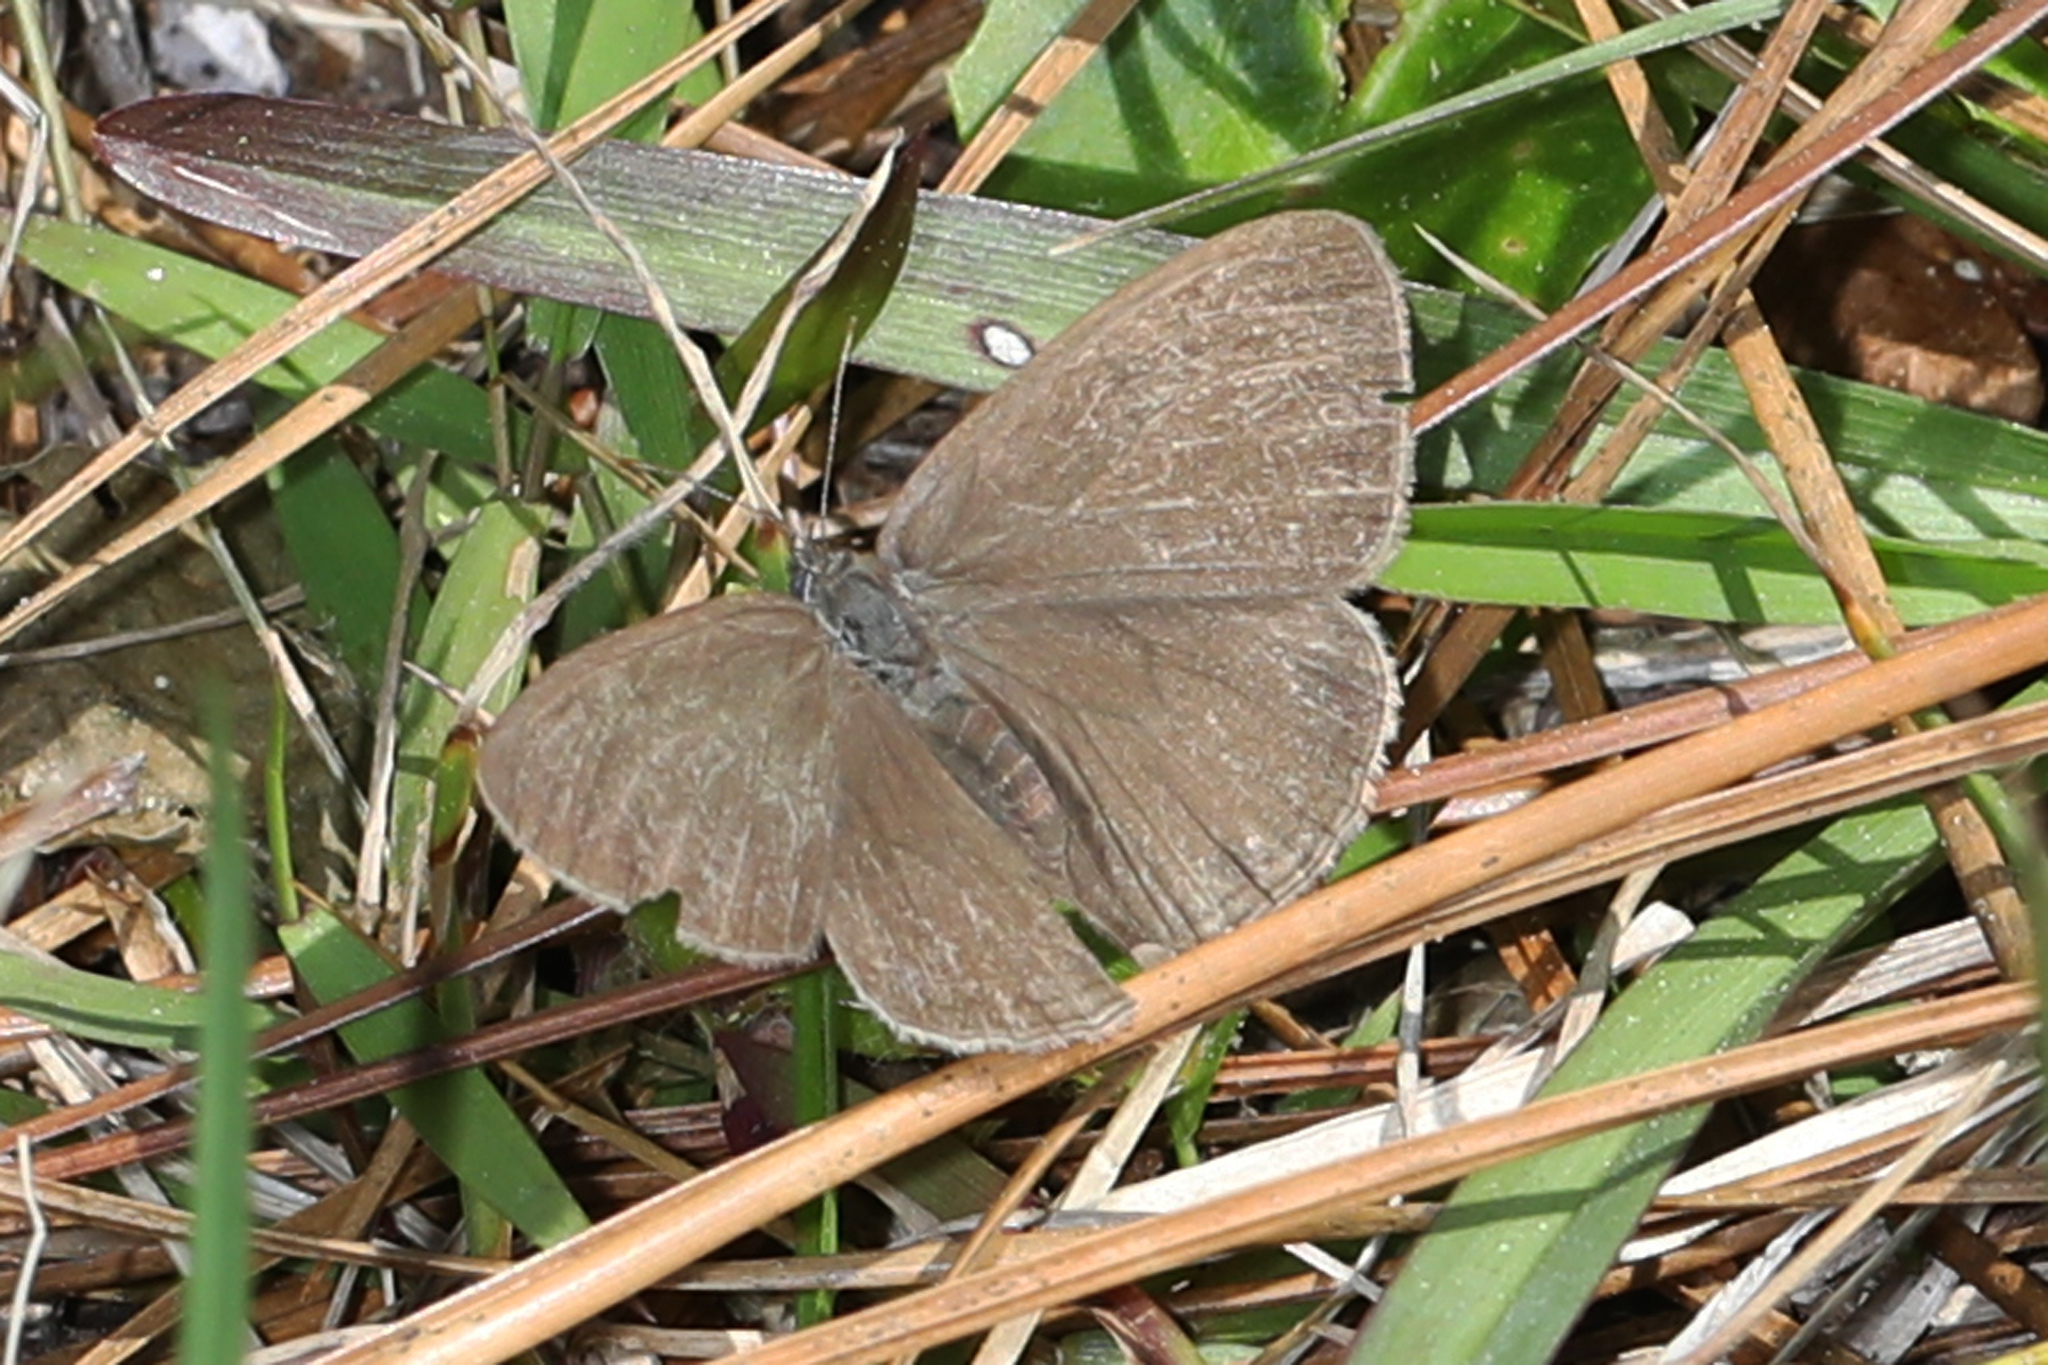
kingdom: Animalia
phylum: Arthropoda
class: Insecta
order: Lepidoptera
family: Nymphalidae
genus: Hermeuptychia
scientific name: Hermeuptychia hermes
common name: Hermes satyr
